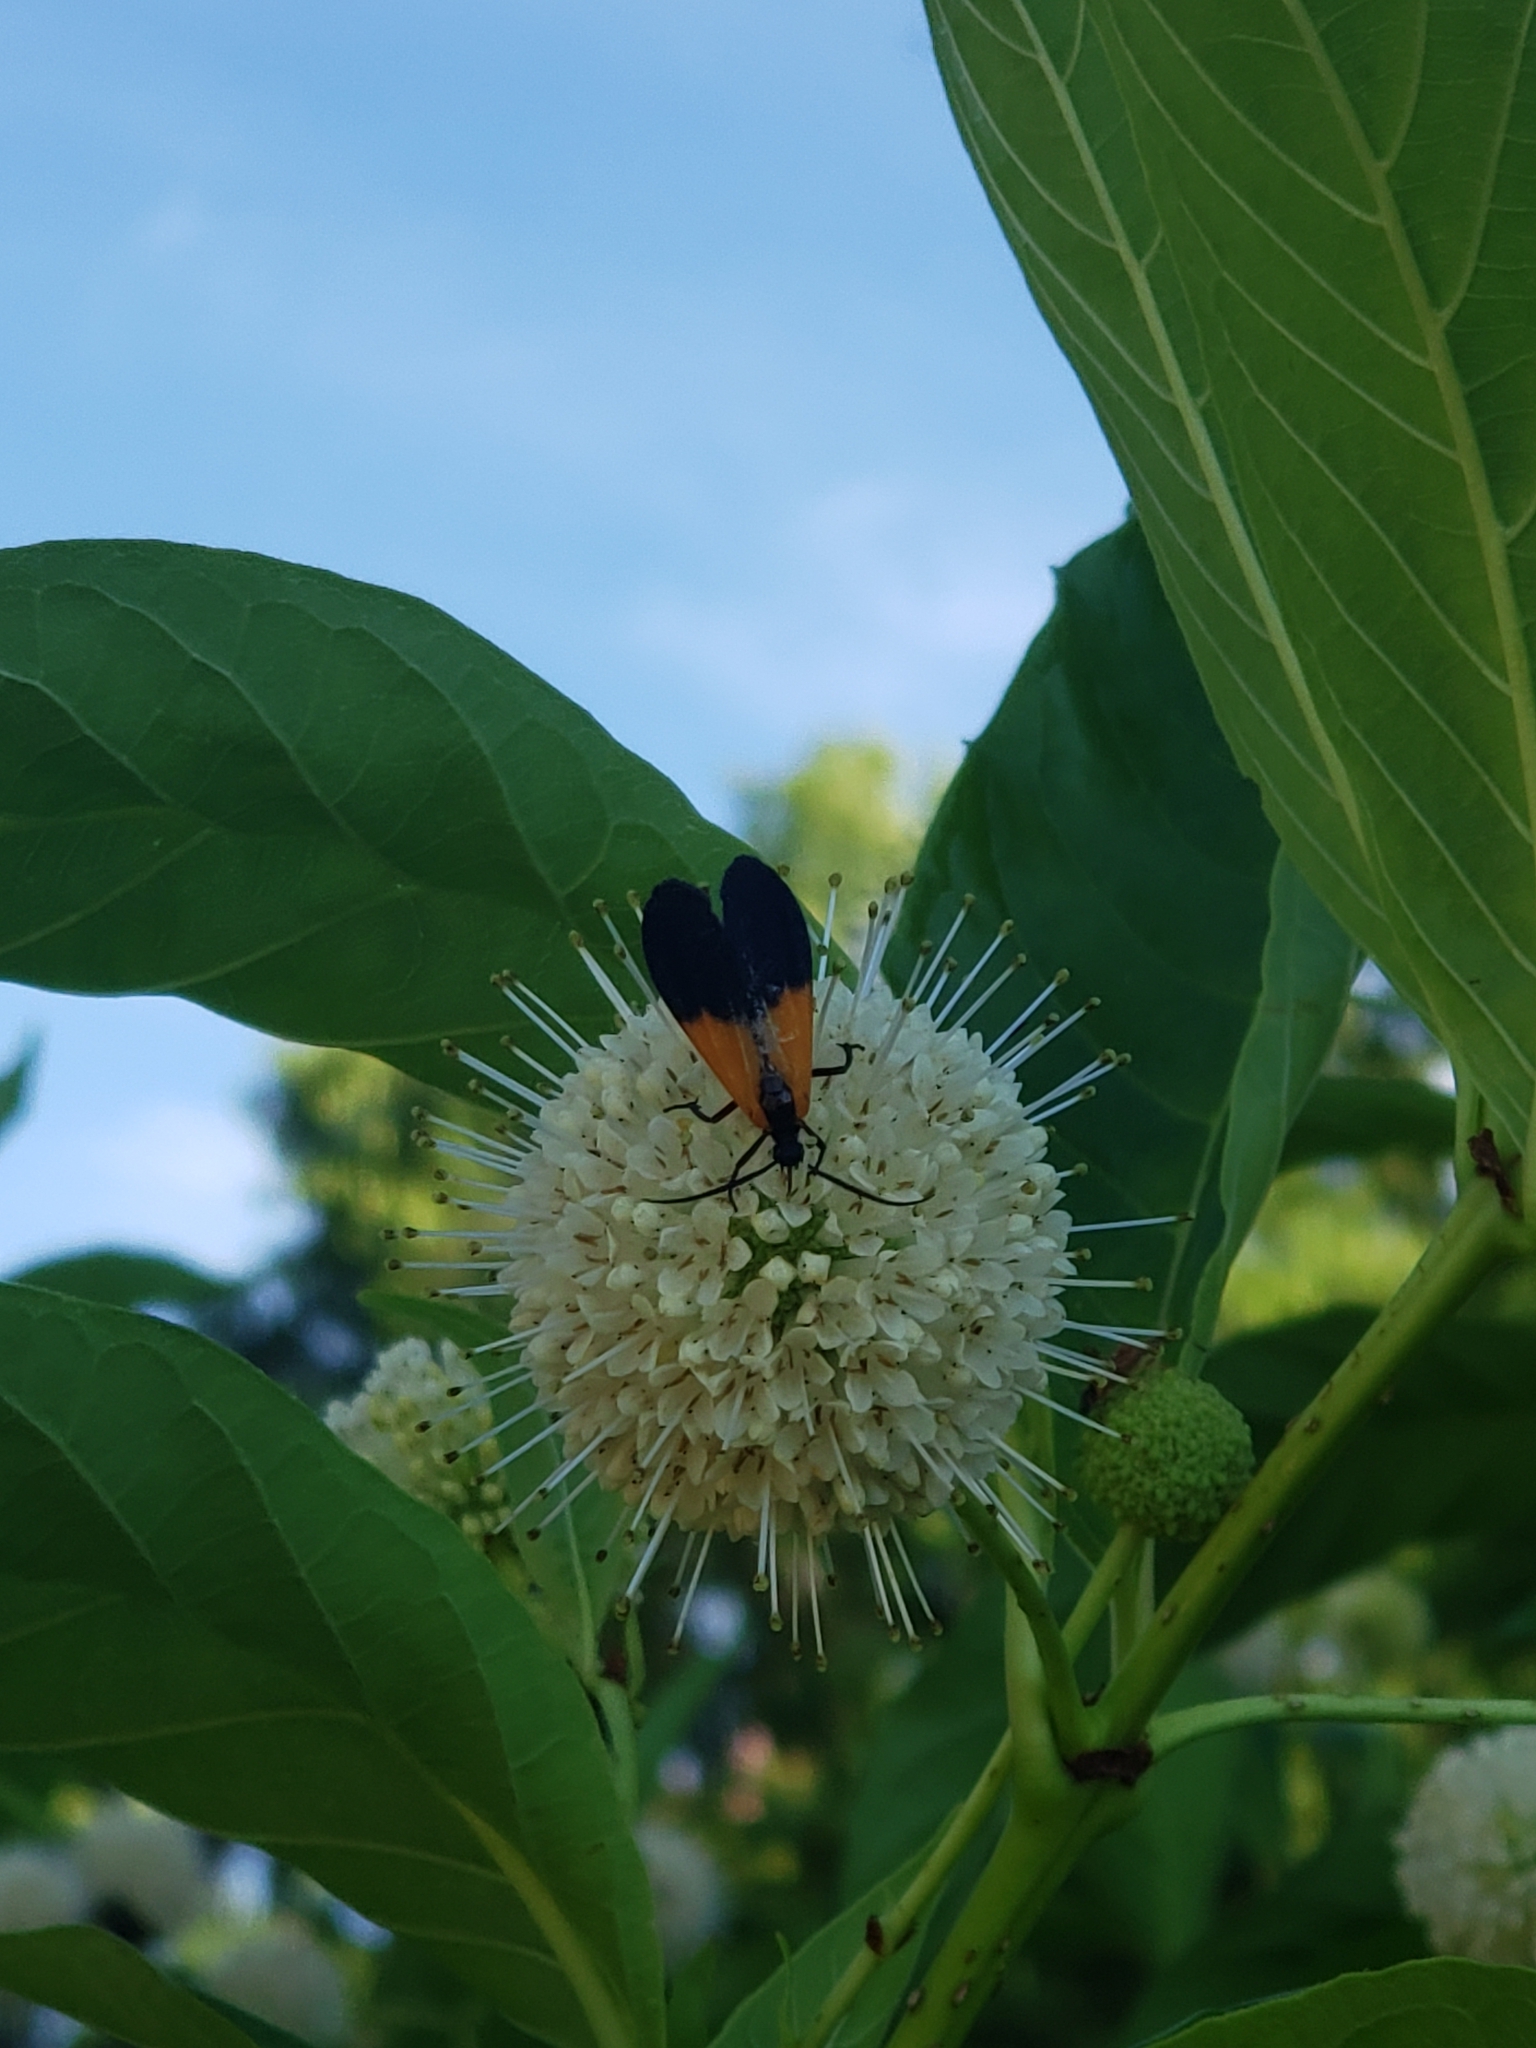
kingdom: Animalia
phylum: Arthropoda
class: Insecta
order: Lepidoptera
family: Erebidae
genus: Lycomorpha
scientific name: Lycomorpha pholus
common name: Black-and-yellow lichen moth
